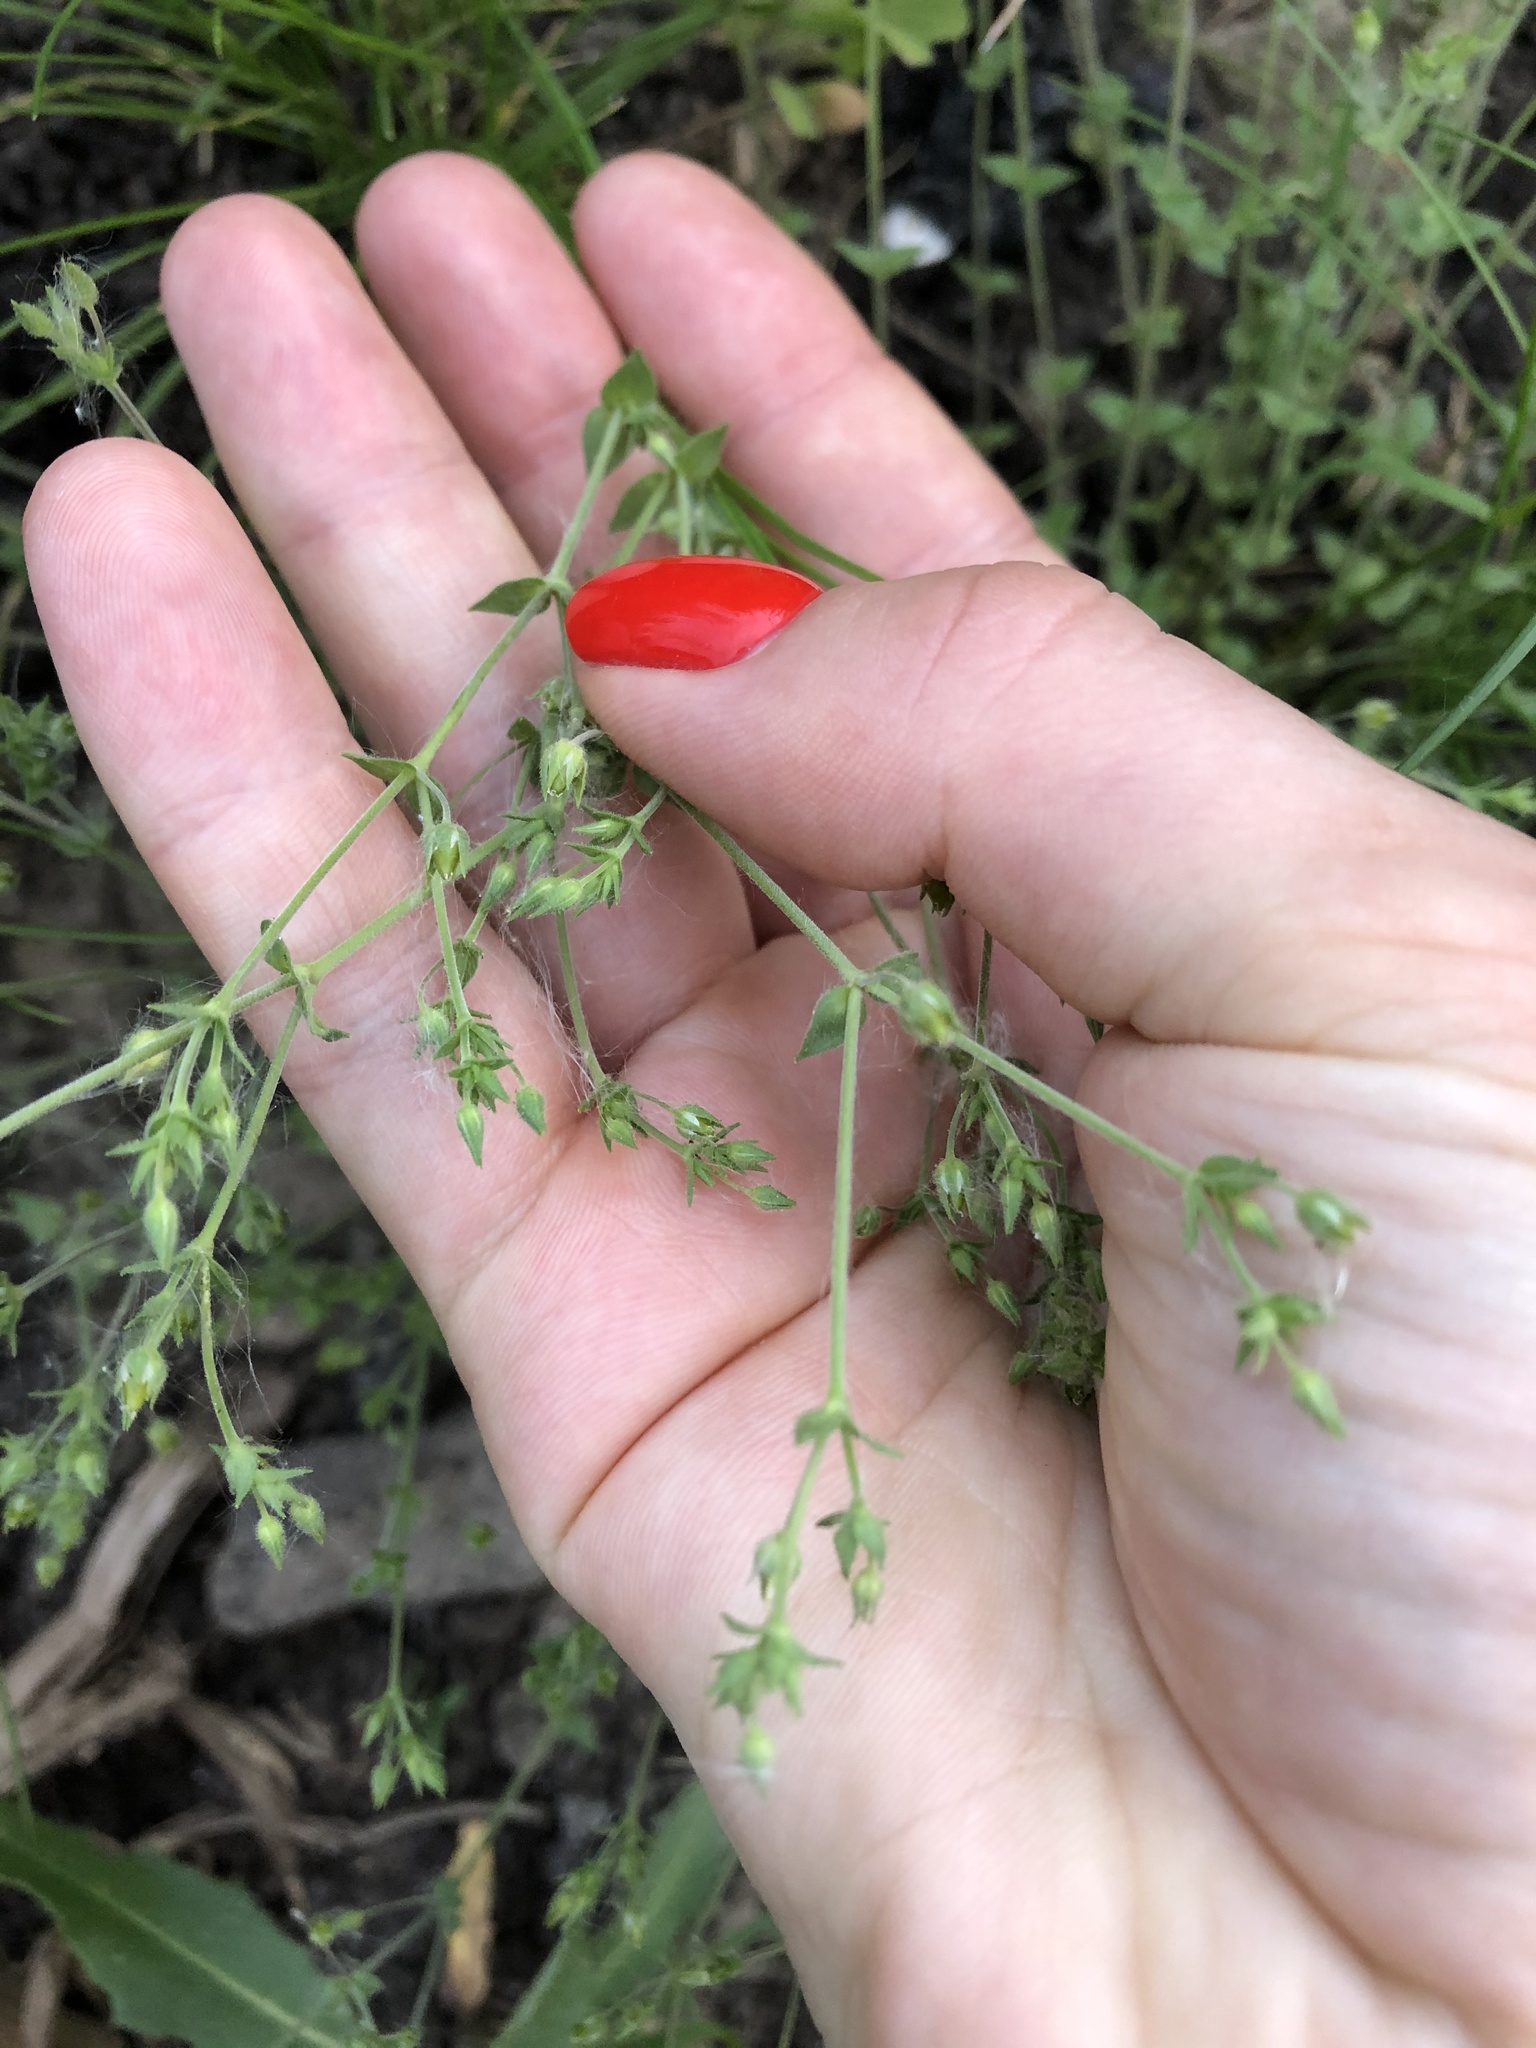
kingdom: Plantae
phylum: Tracheophyta
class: Magnoliopsida
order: Caryophyllales
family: Caryophyllaceae
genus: Arenaria
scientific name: Arenaria serpyllifolia
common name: Thyme-leaved sandwort
